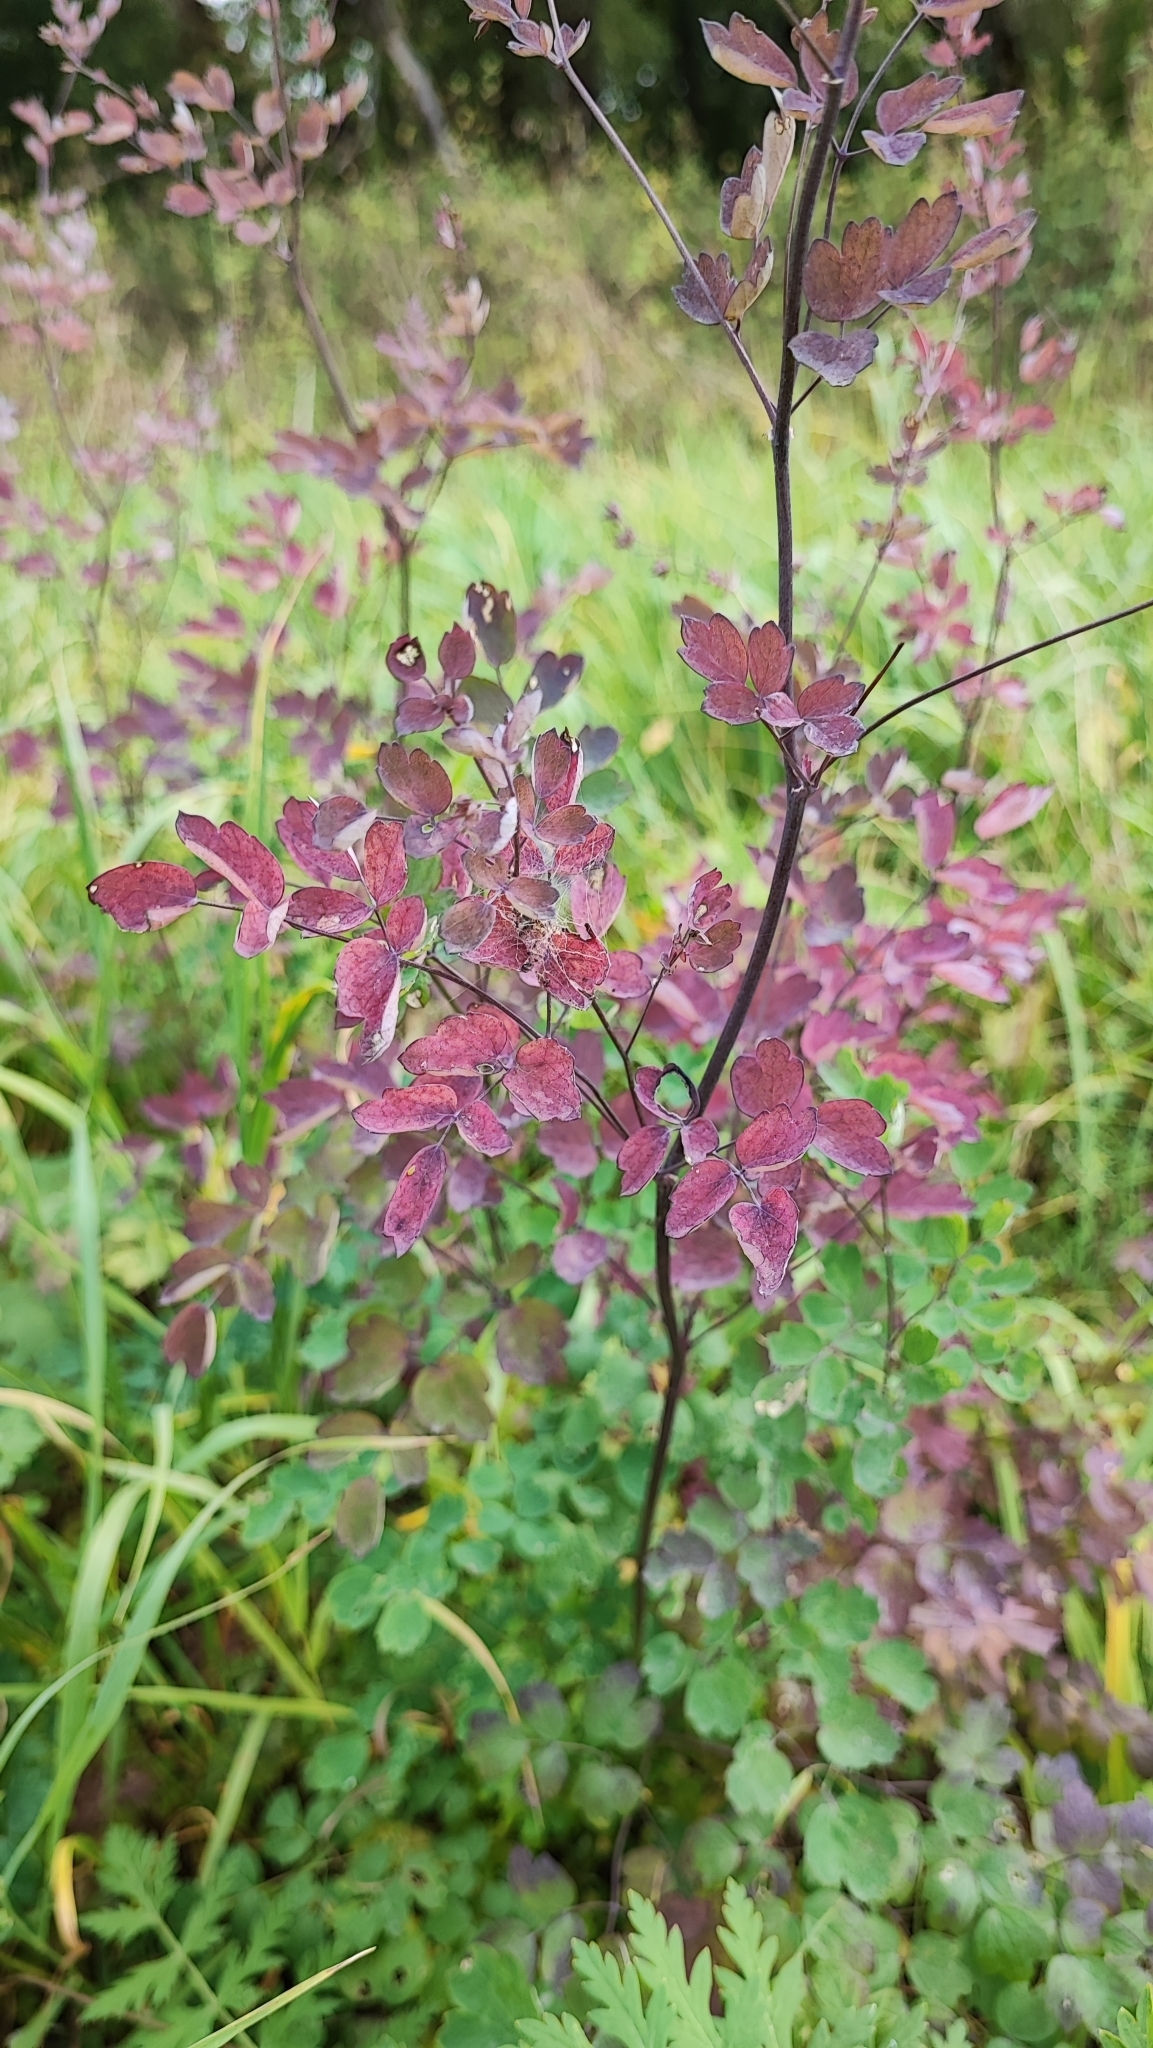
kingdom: Plantae
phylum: Tracheophyta
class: Magnoliopsida
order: Ranunculales
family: Ranunculaceae
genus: Thalictrum
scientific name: Thalictrum minus
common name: Lesser meadow-rue
